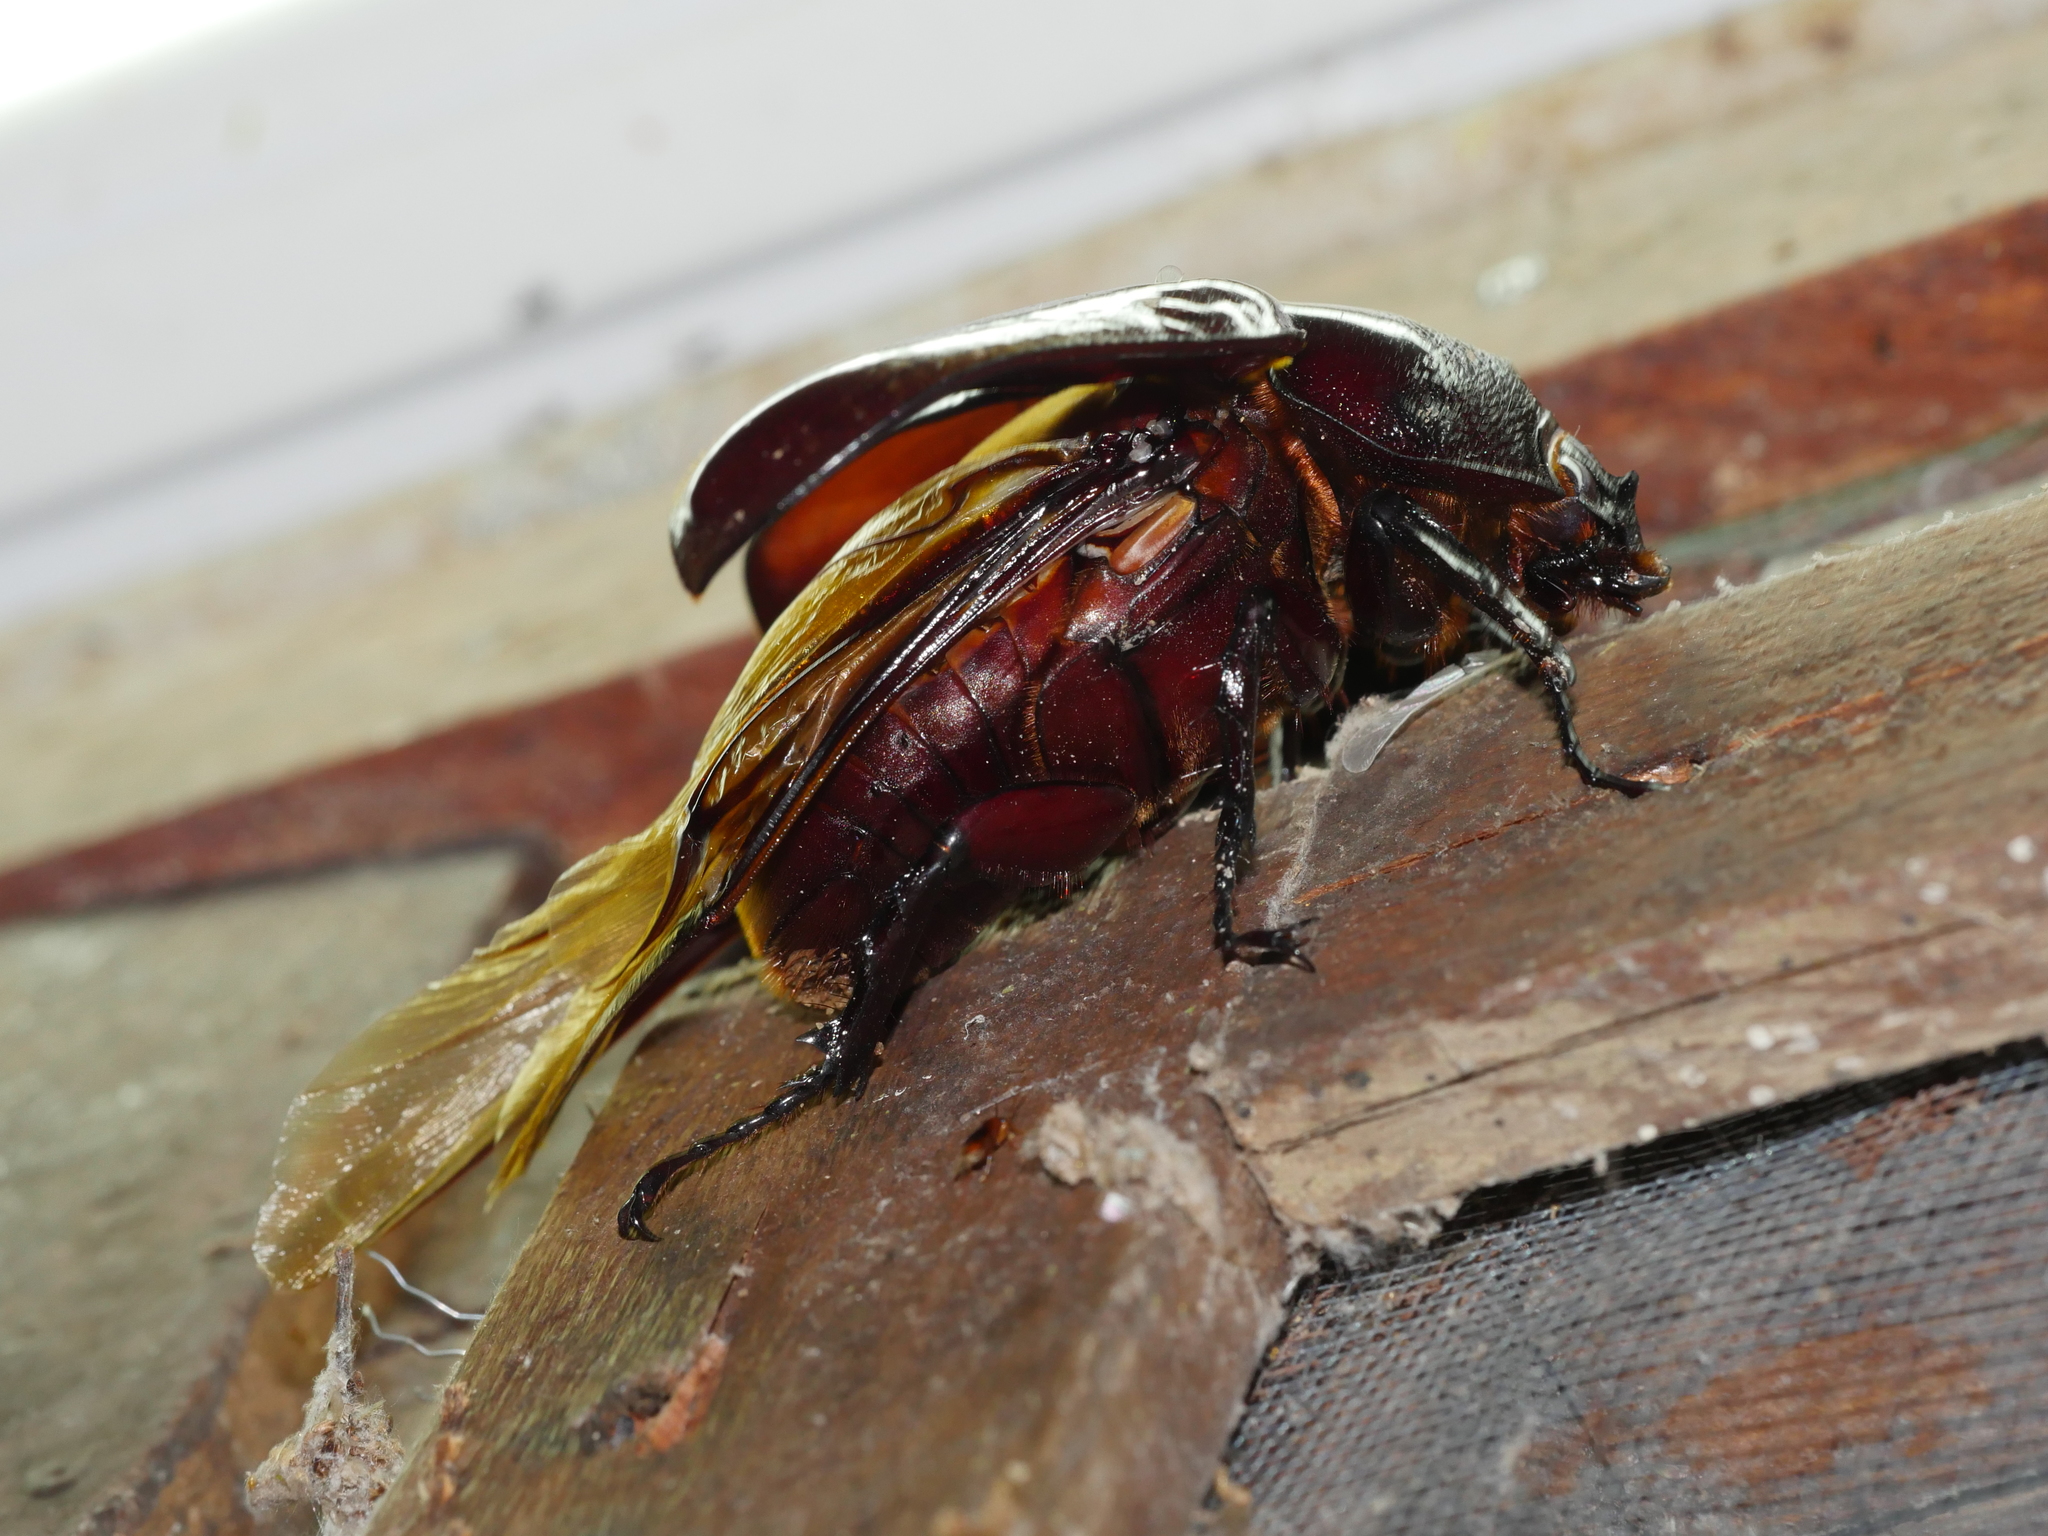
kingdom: Animalia
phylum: Arthropoda
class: Insecta
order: Coleoptera
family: Scarabaeidae
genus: Augosoma
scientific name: Augosoma centaurus
